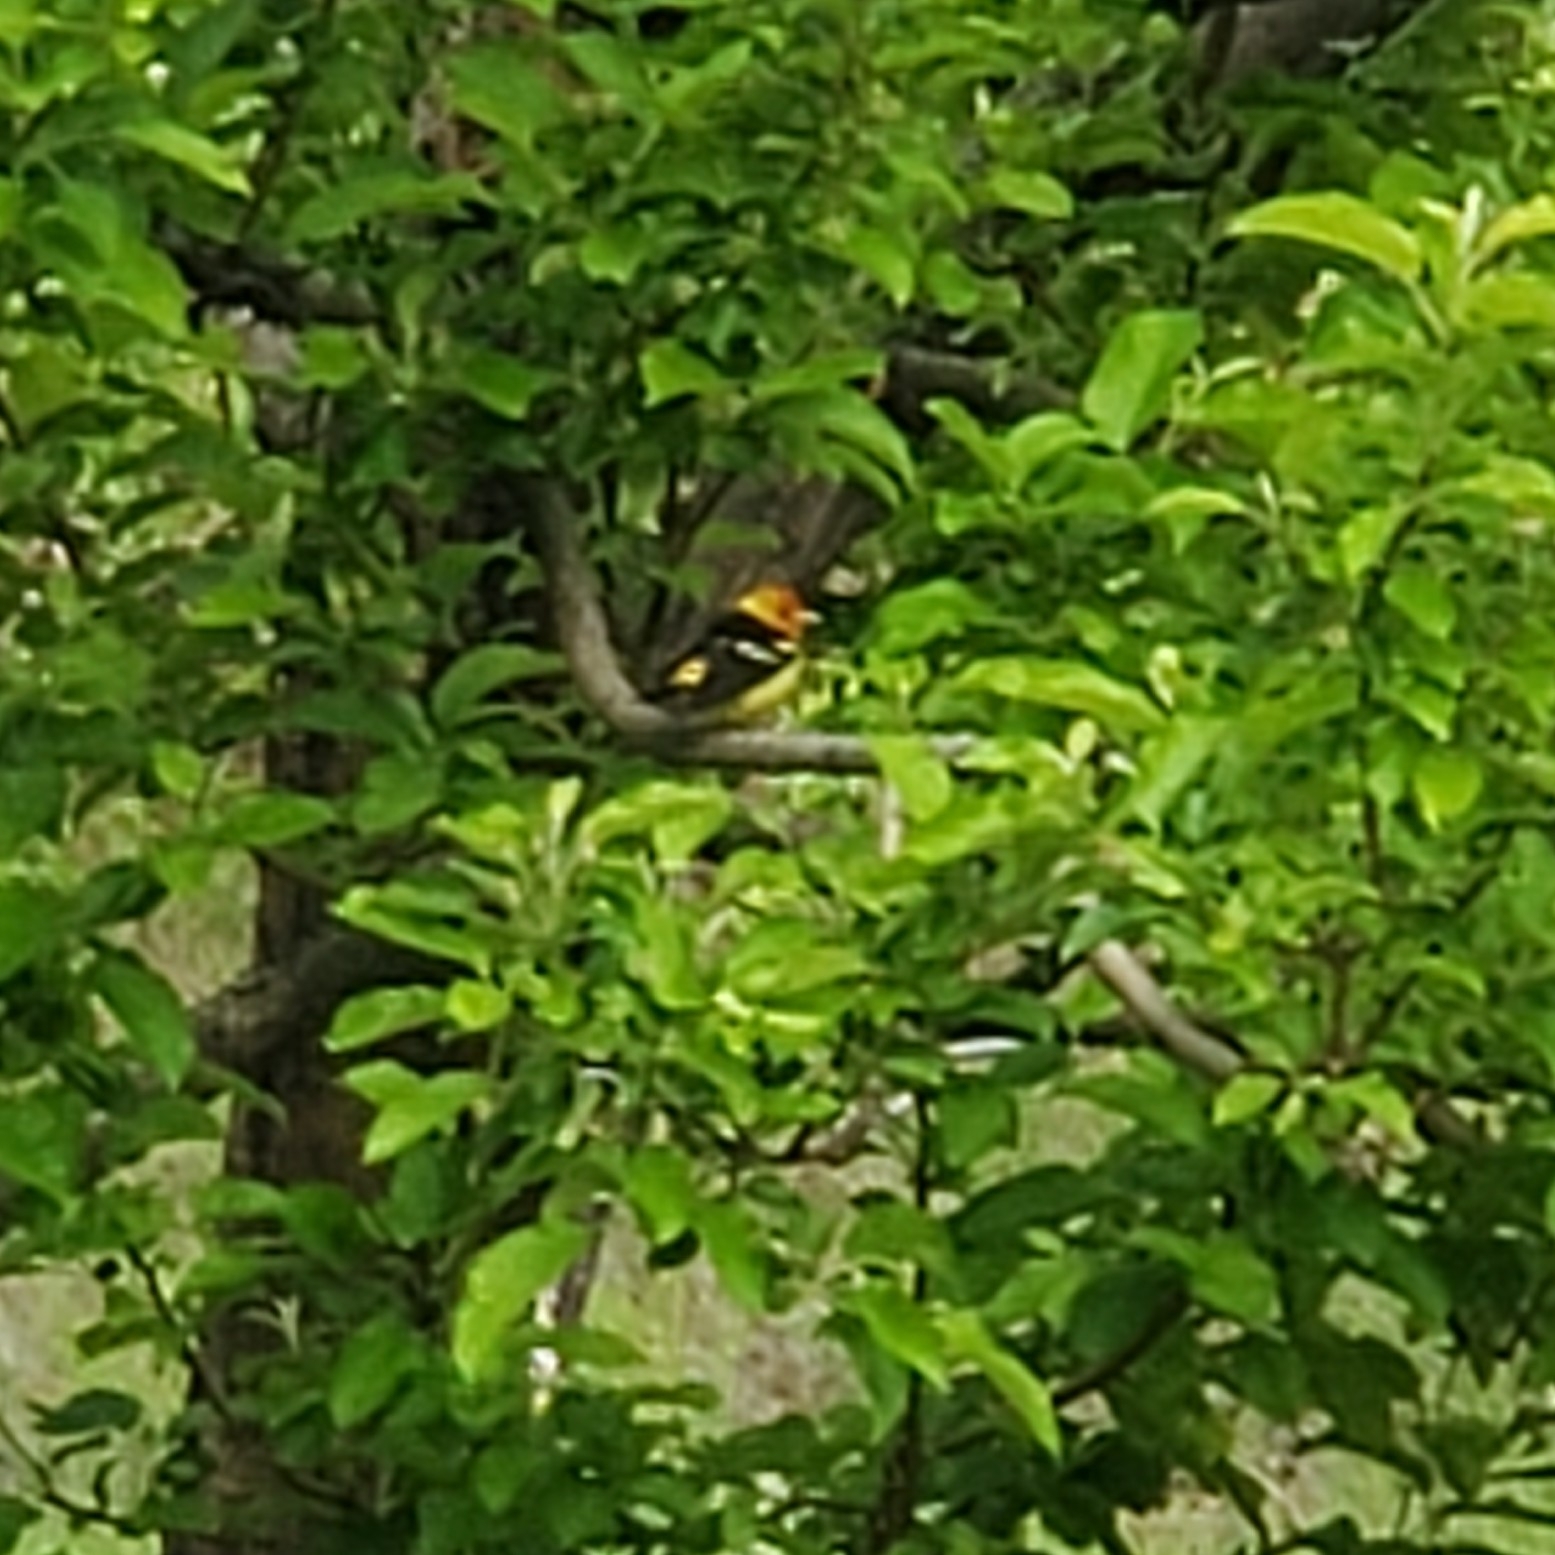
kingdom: Animalia
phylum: Chordata
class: Aves
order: Passeriformes
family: Cardinalidae
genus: Piranga
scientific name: Piranga ludoviciana
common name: Western tanager
